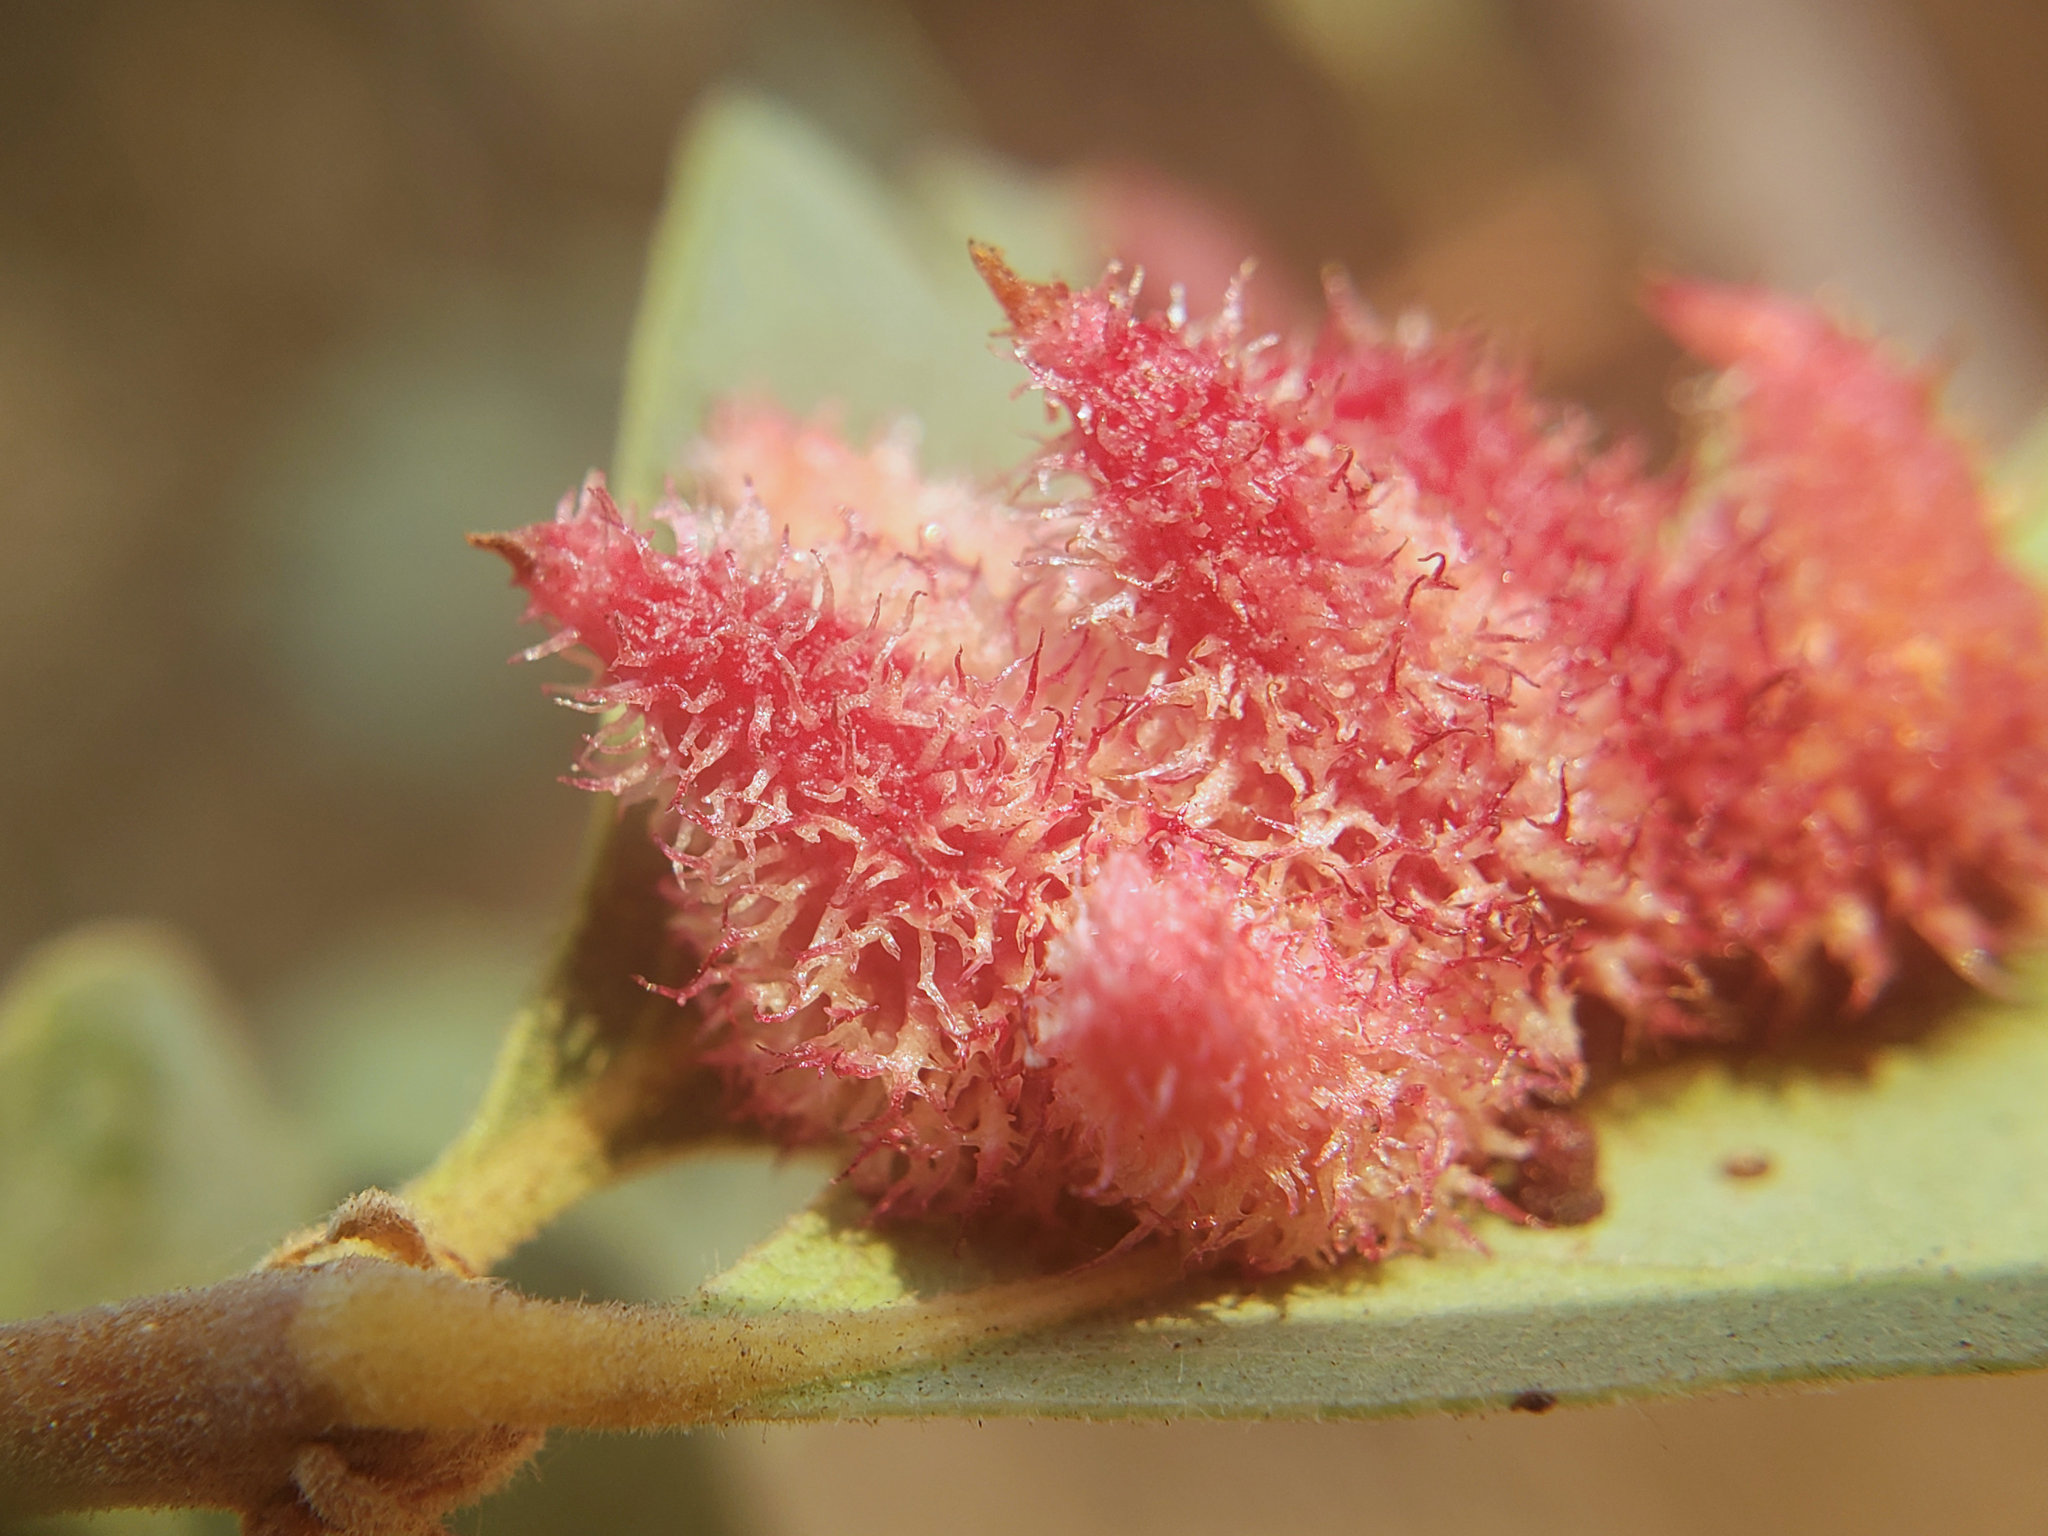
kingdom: Animalia
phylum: Arthropoda
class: Insecta
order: Hymenoptera
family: Cynipidae
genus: Andricus
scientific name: Andricus
